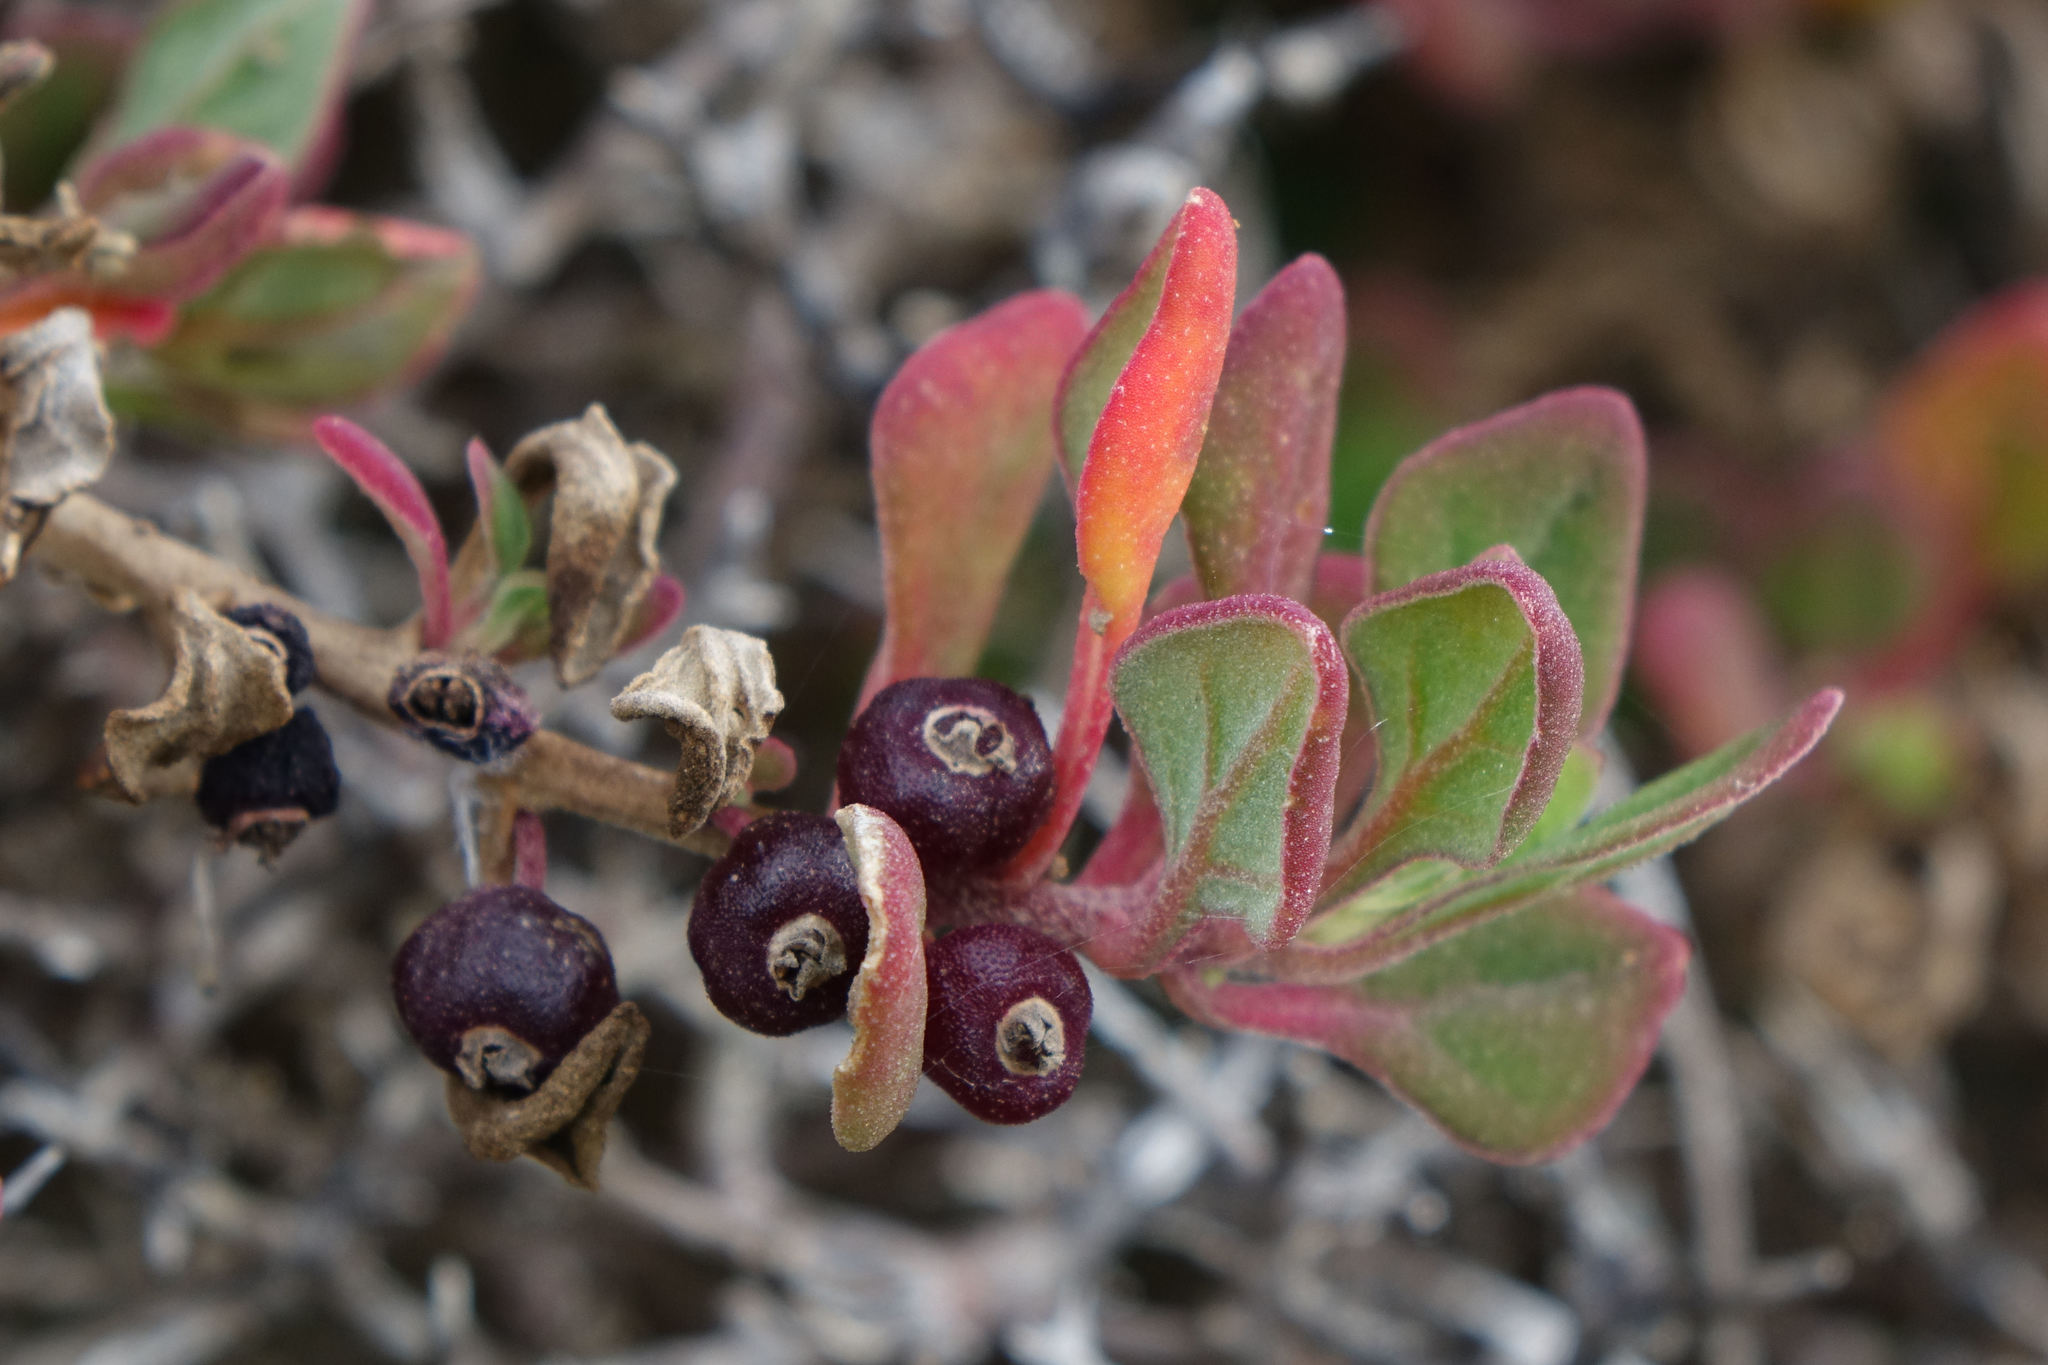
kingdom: Plantae
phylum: Tracheophyta
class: Magnoliopsida
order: Caryophyllales
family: Aizoaceae
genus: Tetragonia
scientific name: Tetragonia implexicoma
